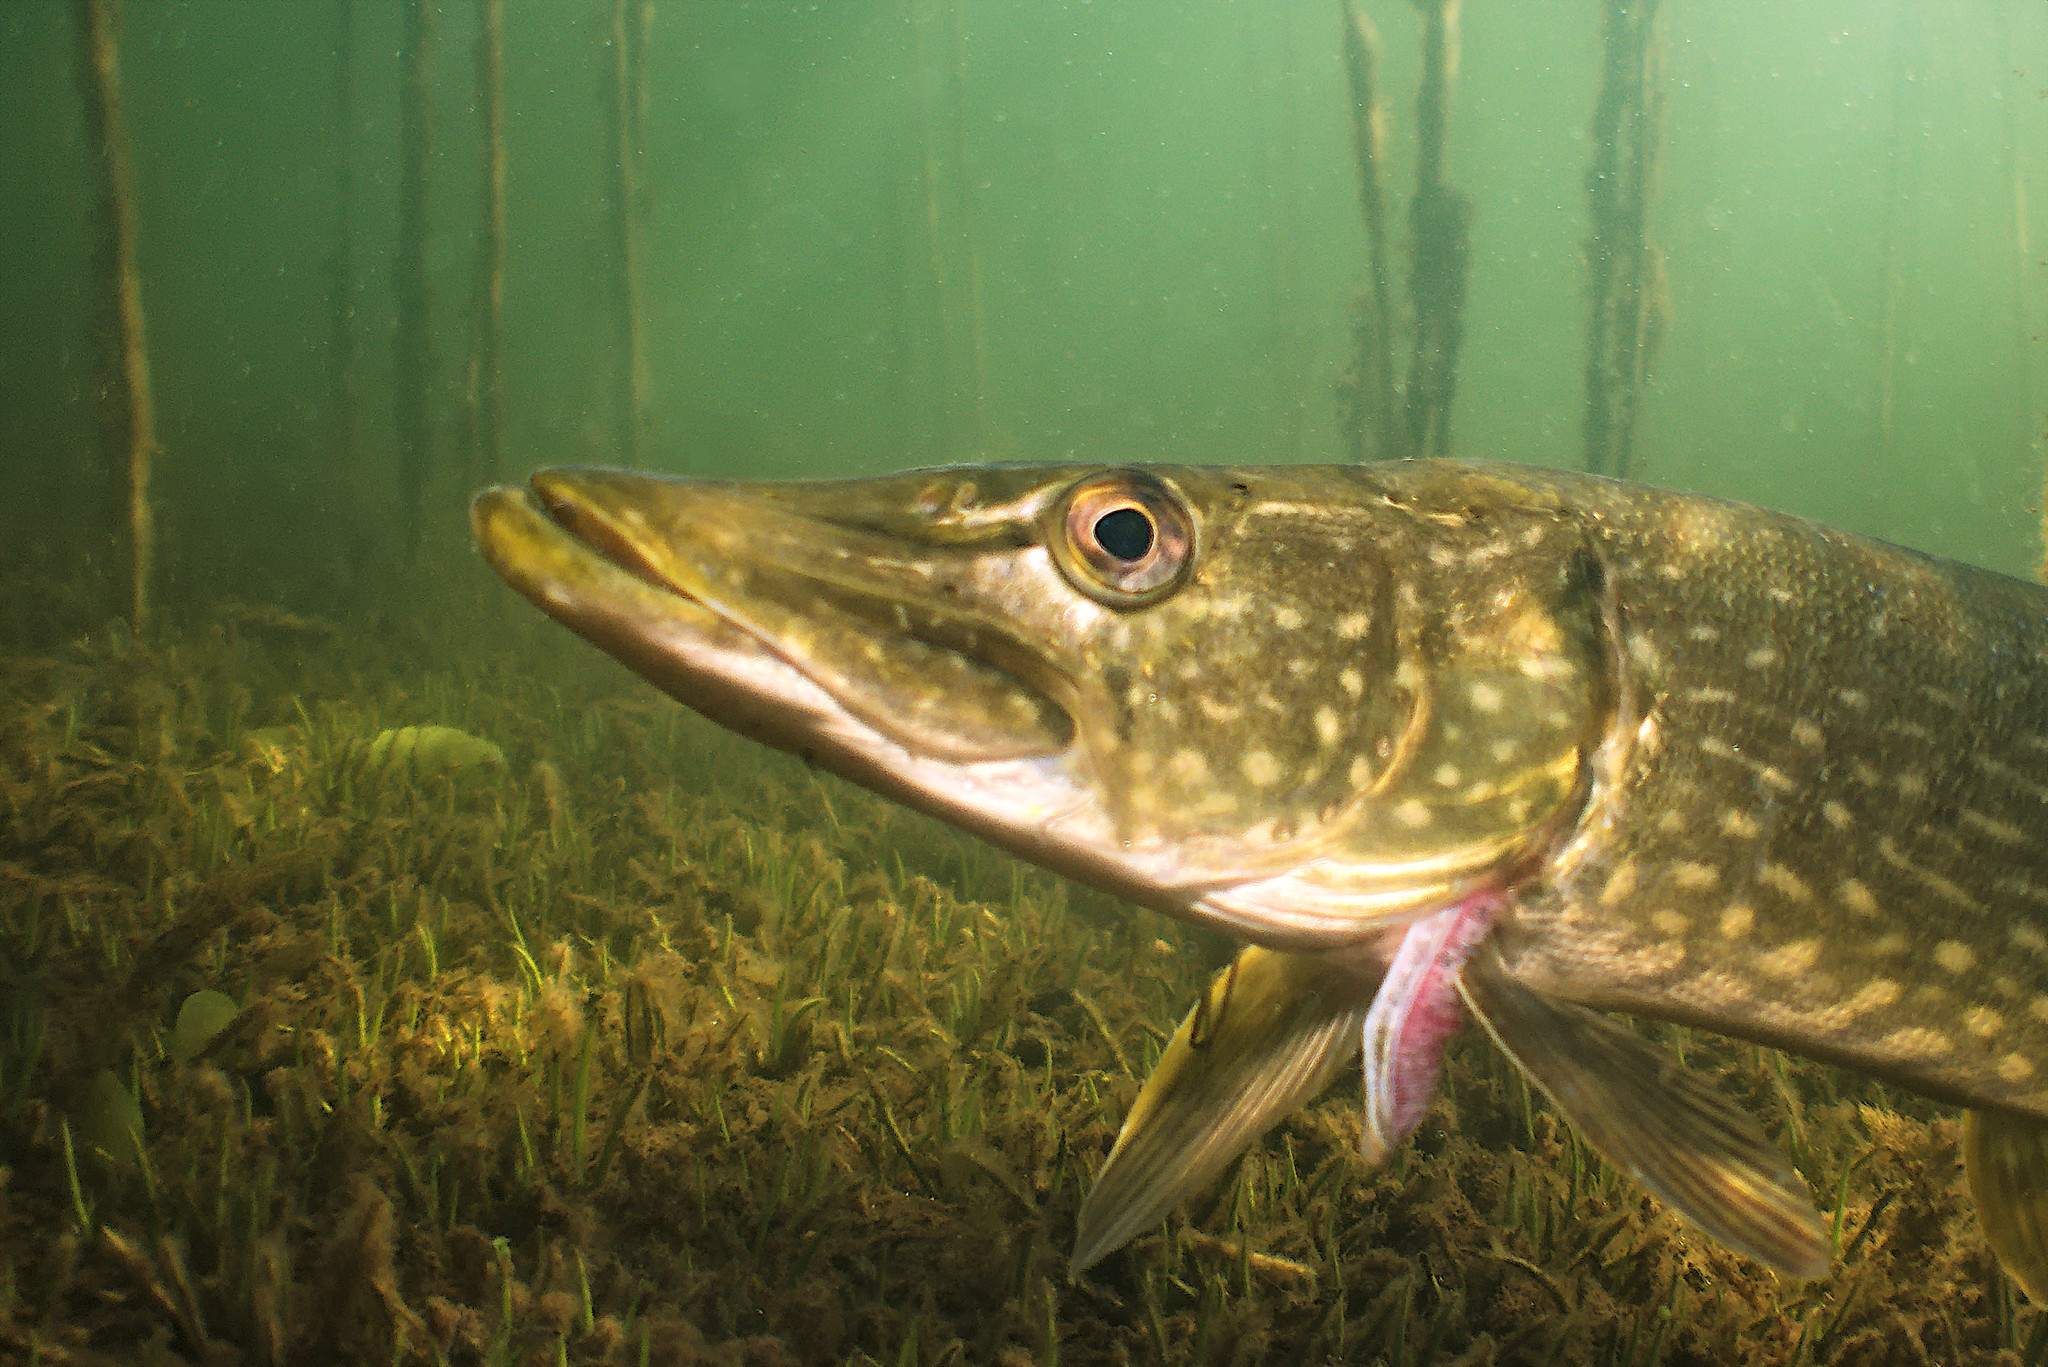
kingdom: Animalia
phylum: Chordata
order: Esociformes
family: Esocidae
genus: Esox
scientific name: Esox lucius
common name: Northern pike
